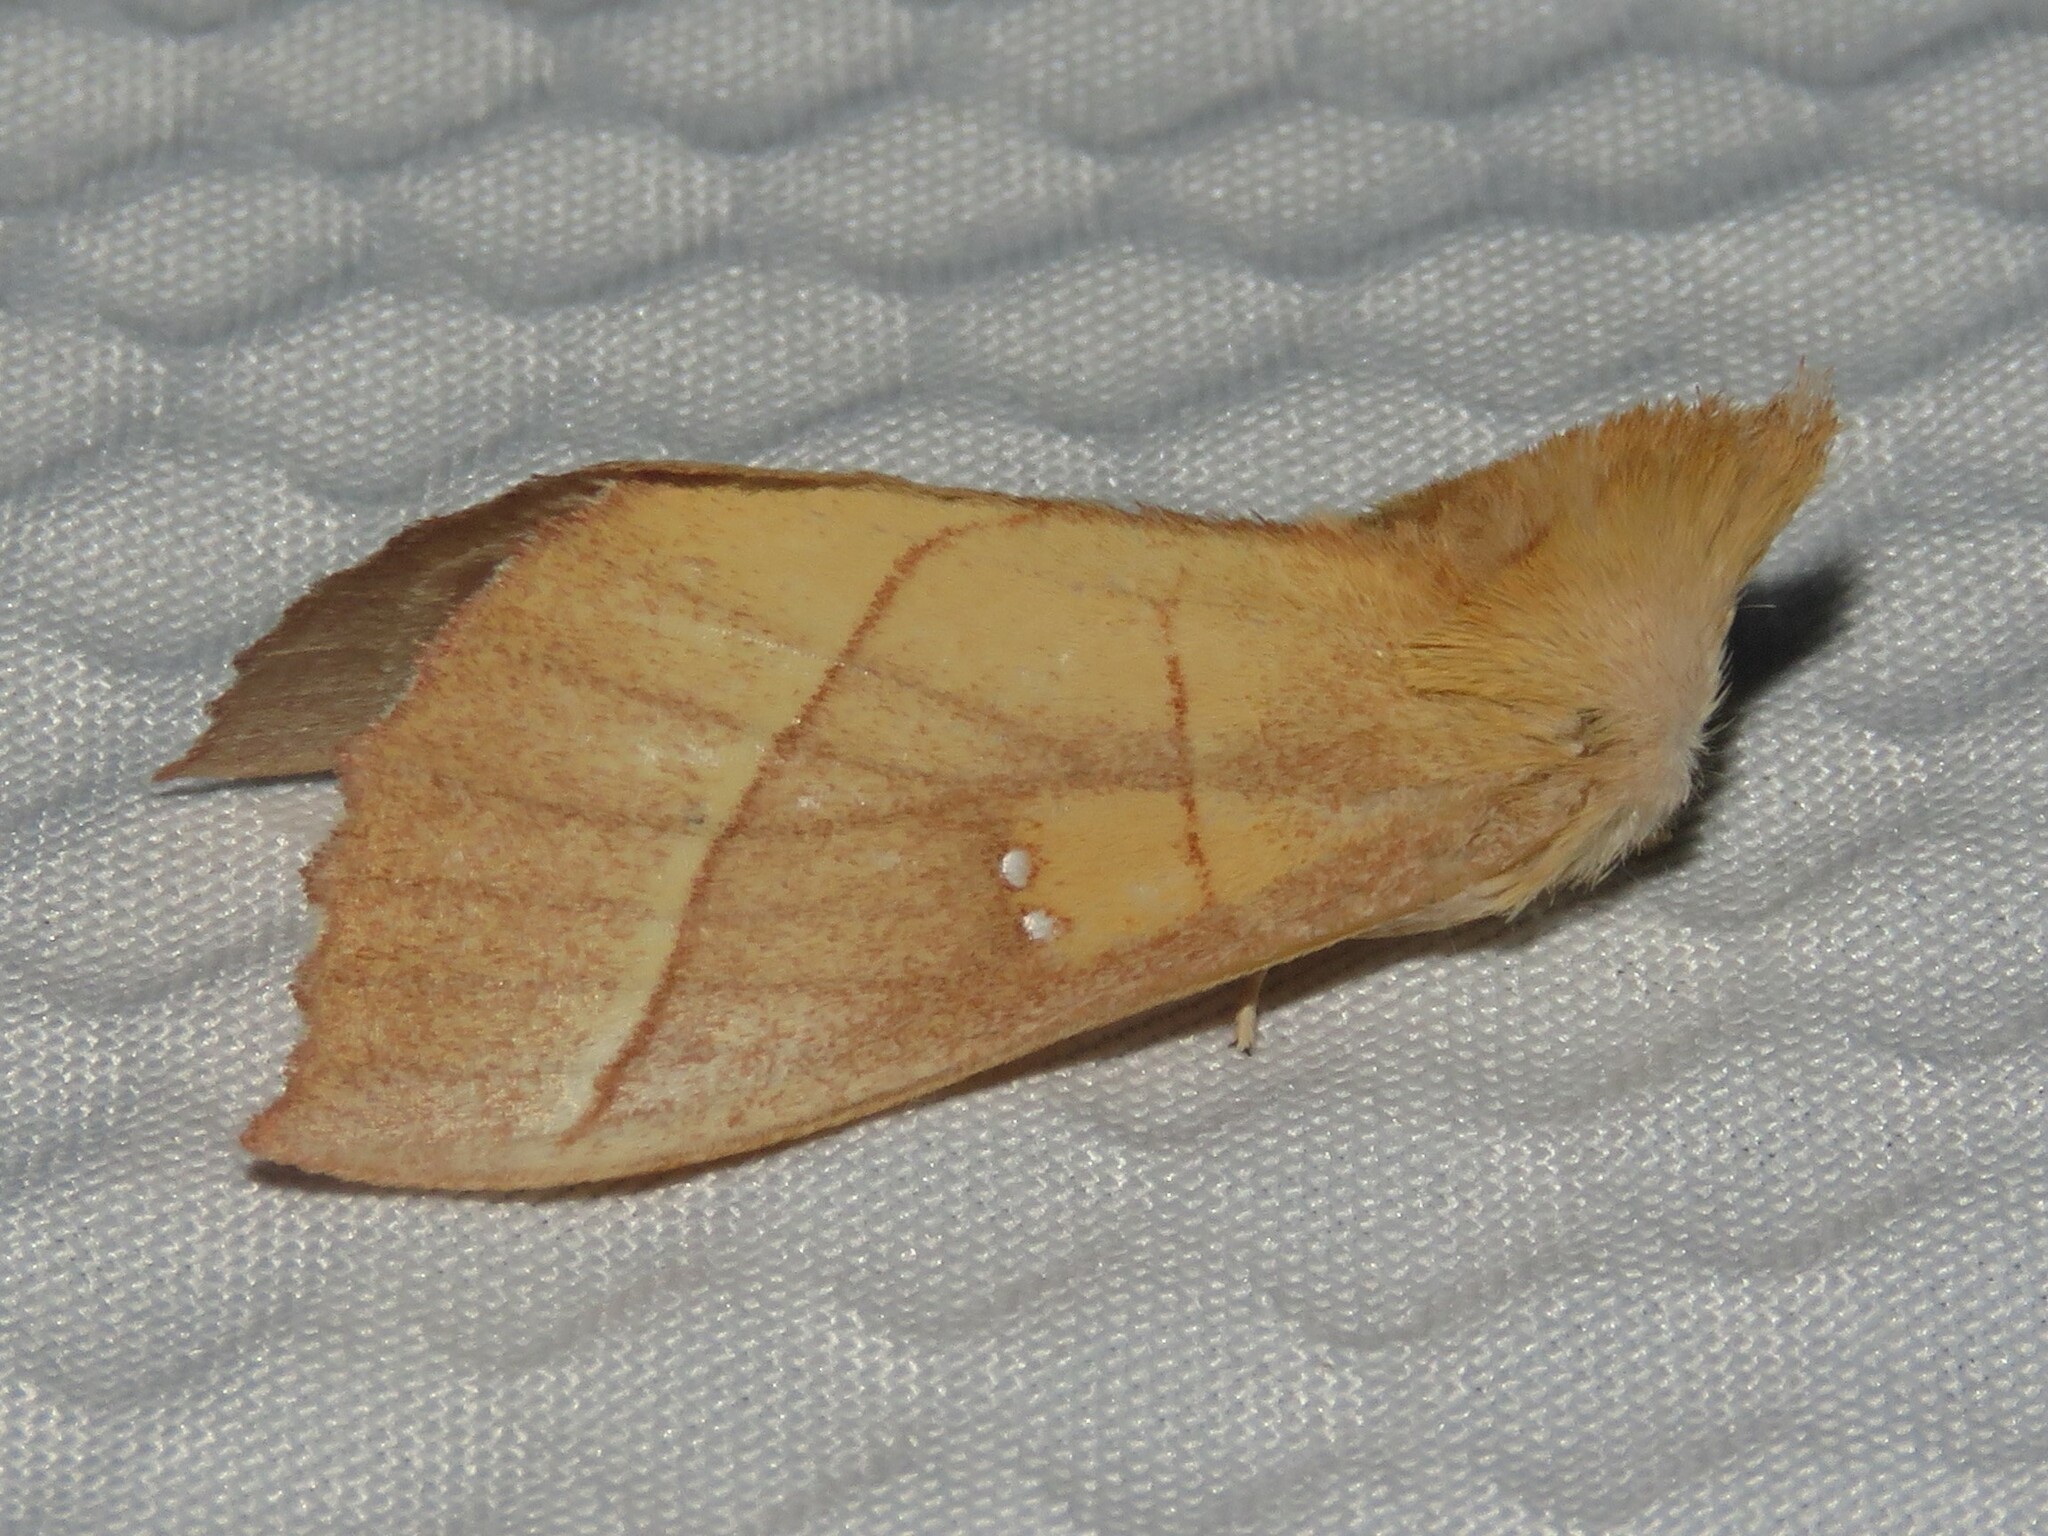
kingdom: Animalia
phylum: Arthropoda
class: Insecta
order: Lepidoptera
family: Notodontidae
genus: Nadata
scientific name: Nadata gibbosa
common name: White-dotted prominent
